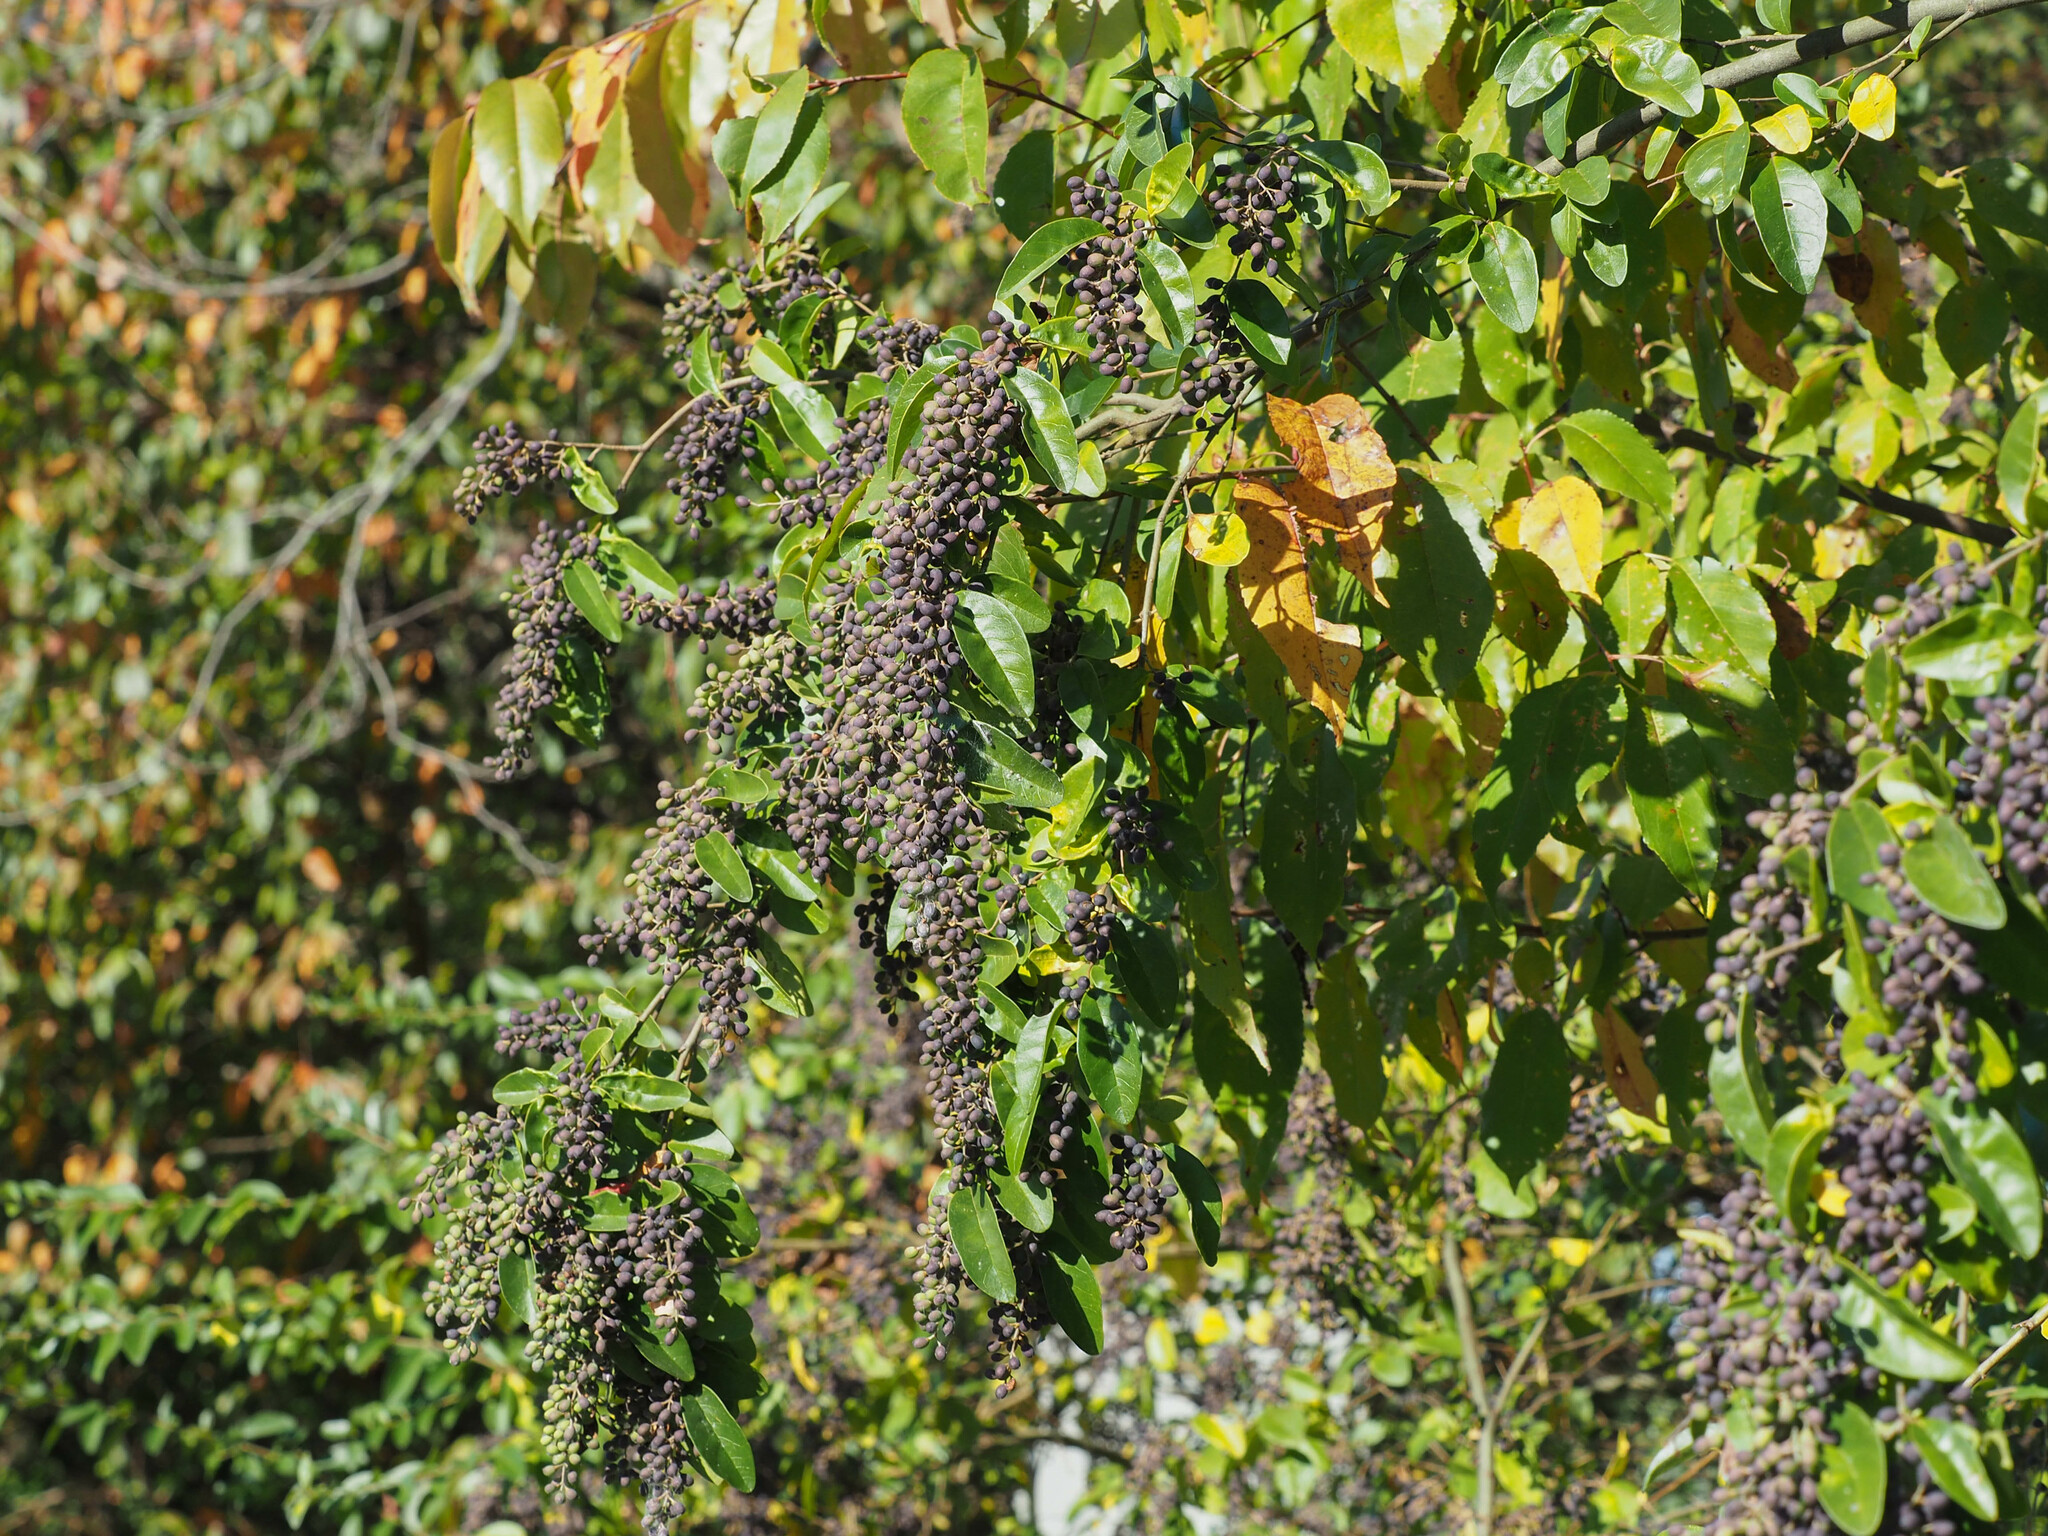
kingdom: Plantae
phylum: Tracheophyta
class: Magnoliopsida
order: Lamiales
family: Oleaceae
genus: Ligustrum
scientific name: Ligustrum sinense
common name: Chinese privet
